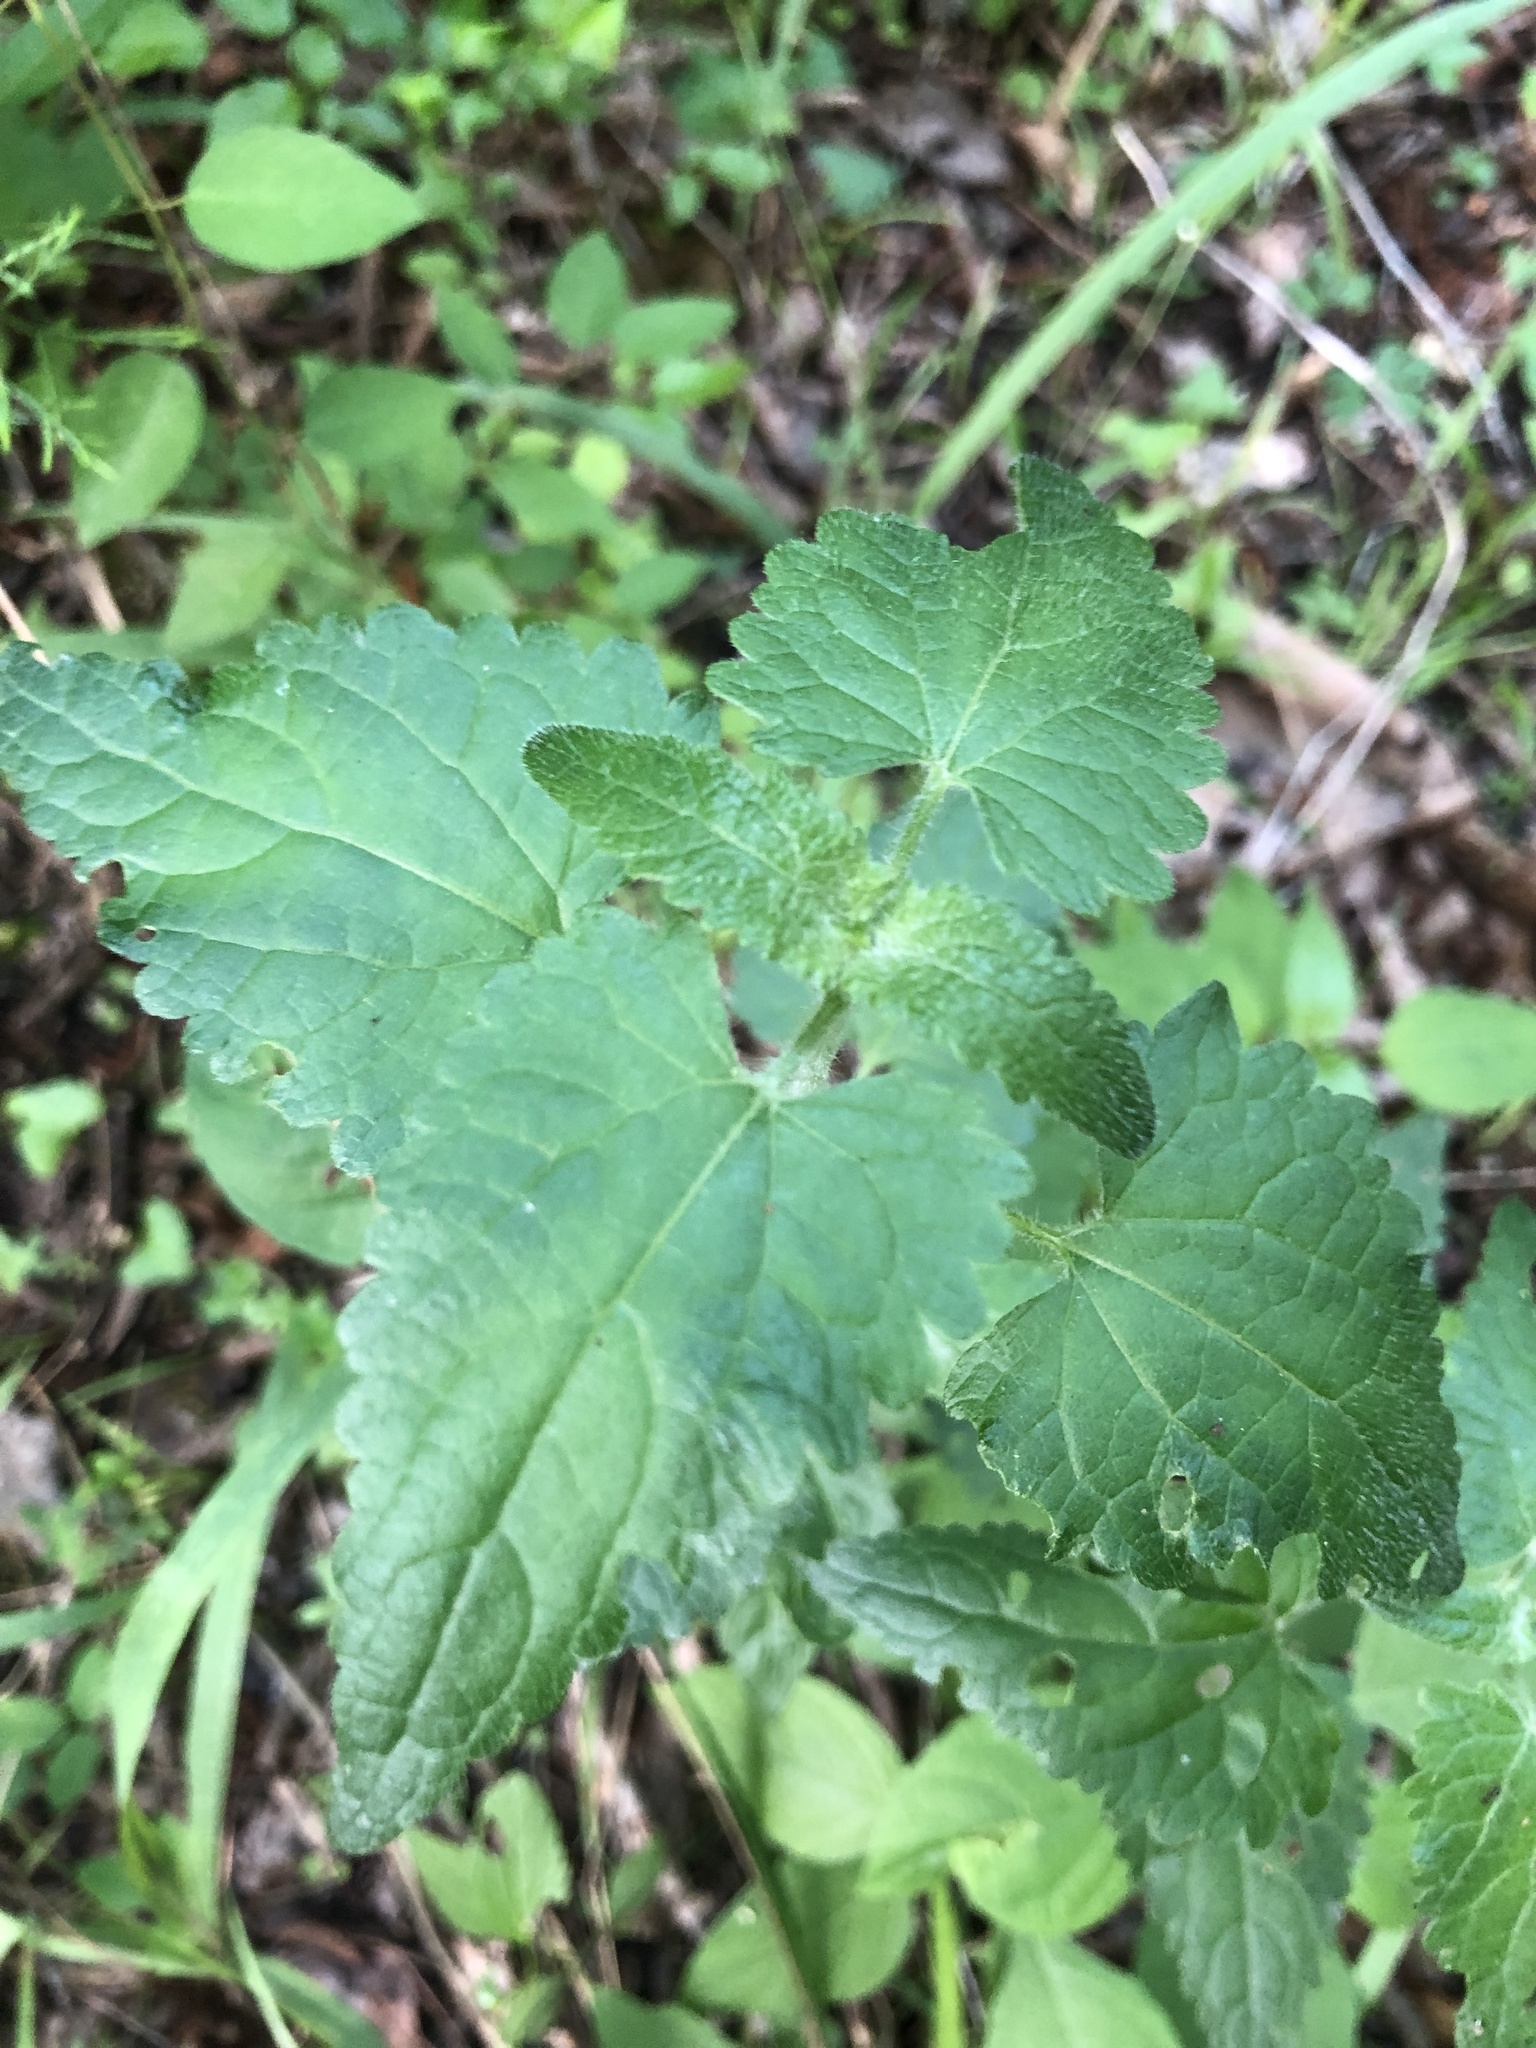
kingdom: Plantae
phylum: Tracheophyta
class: Magnoliopsida
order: Asterales
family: Asteraceae
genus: Fleischmannia
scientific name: Fleischmannia incarnata
